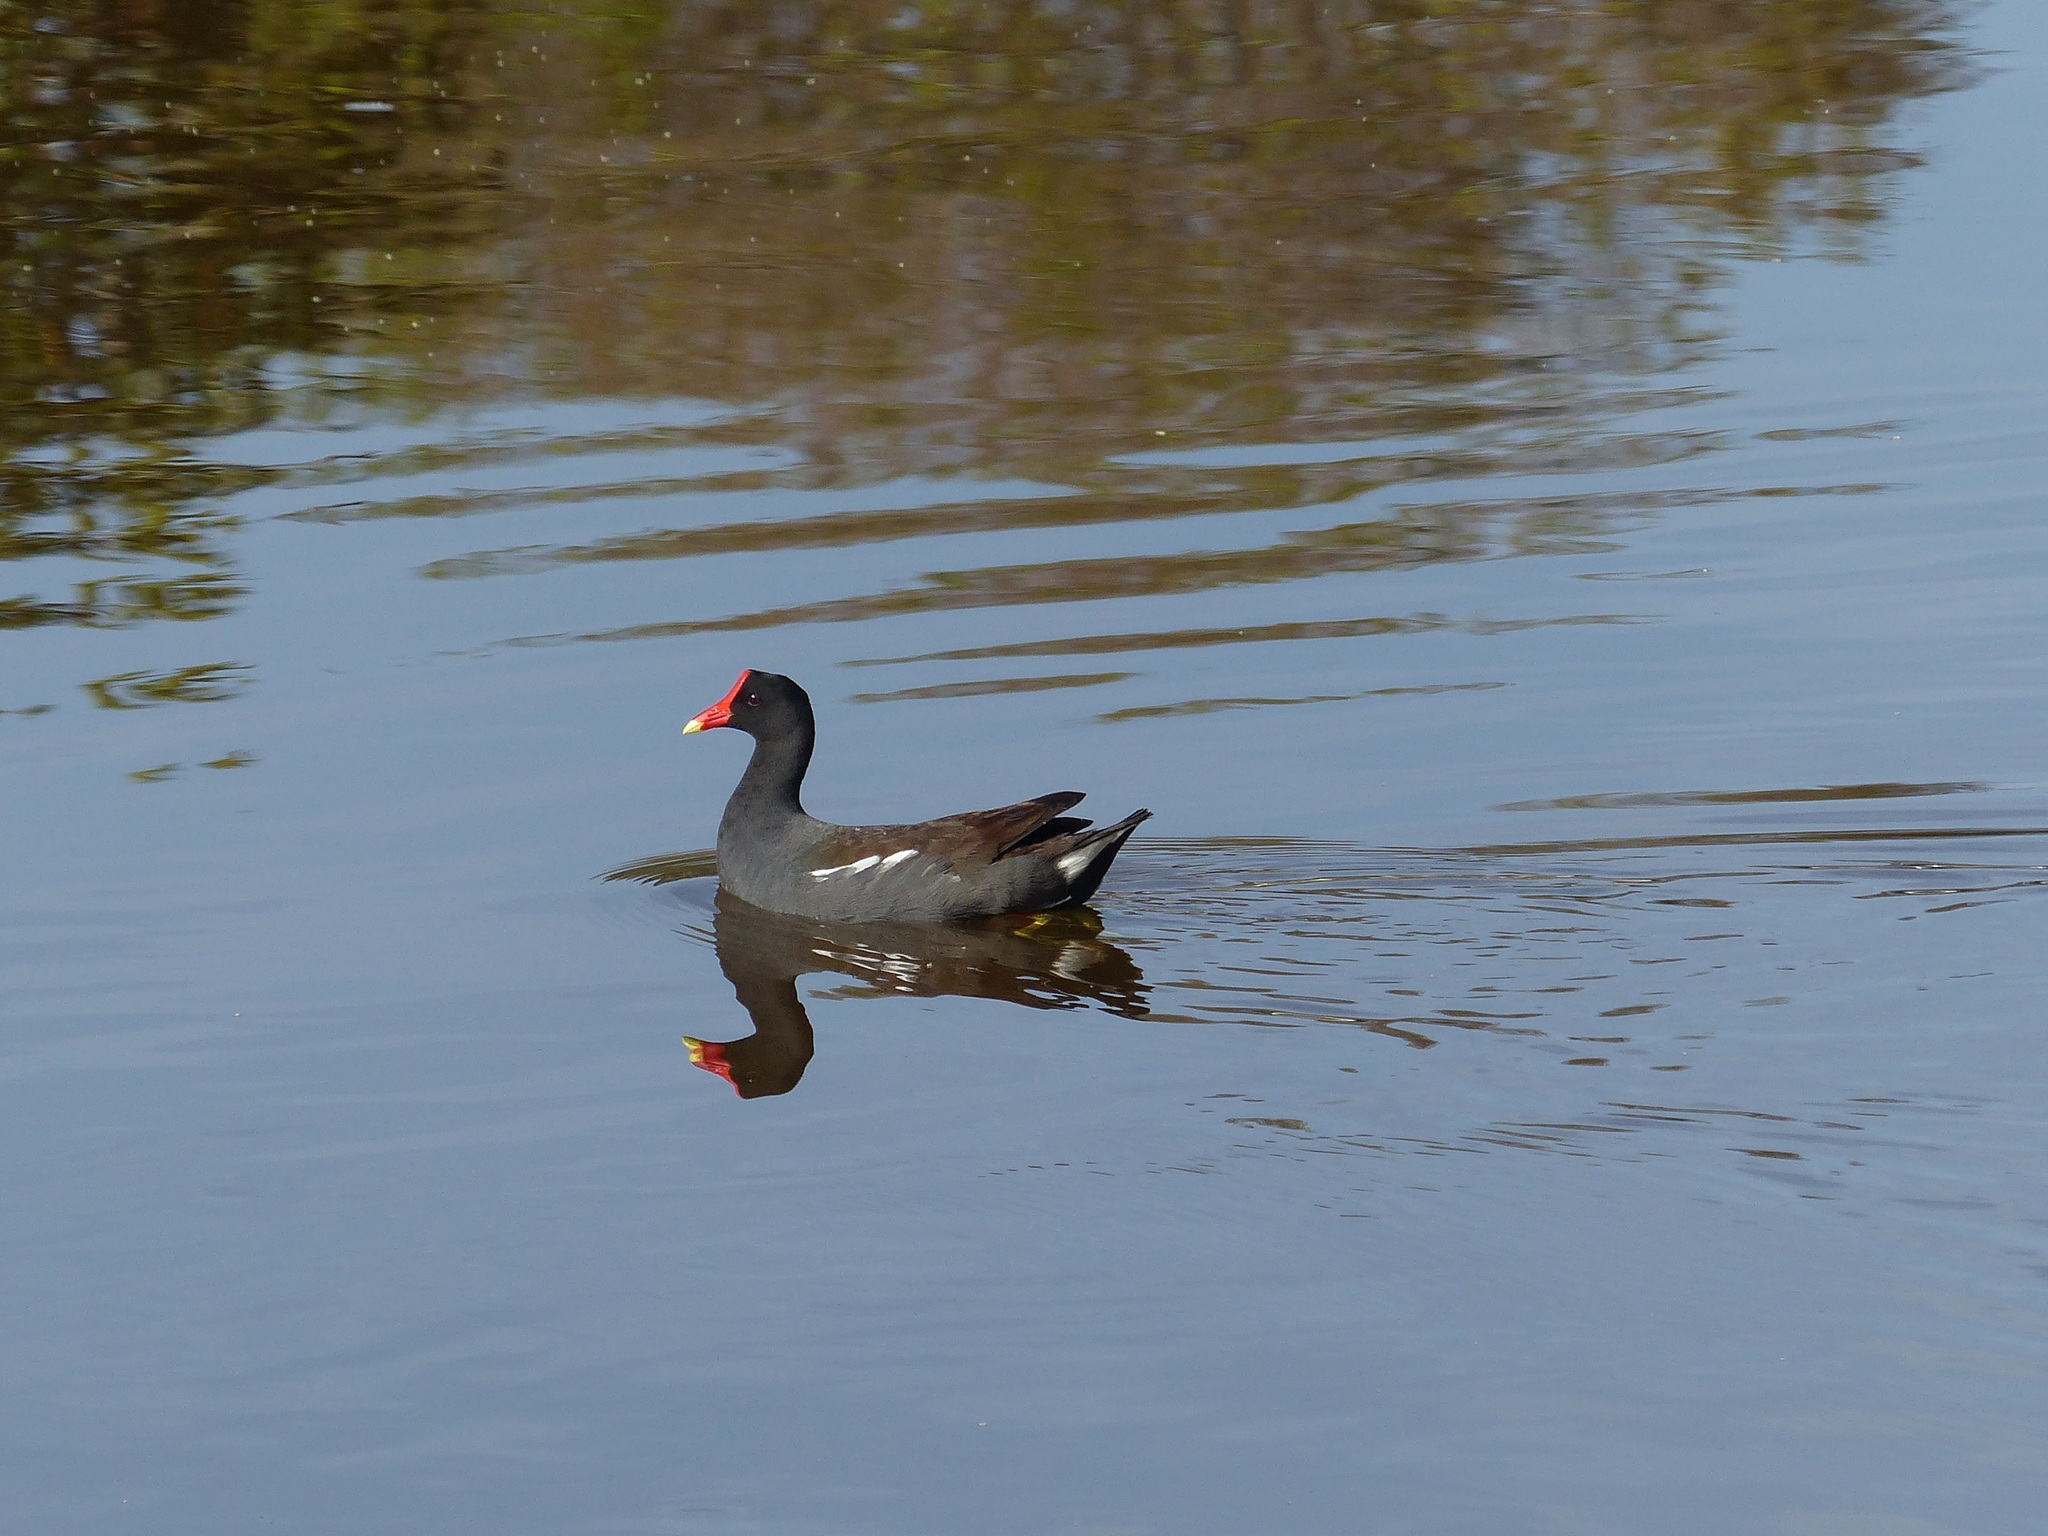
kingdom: Animalia
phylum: Chordata
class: Aves
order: Gruiformes
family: Rallidae
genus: Gallinula
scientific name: Gallinula chloropus
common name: Common moorhen
